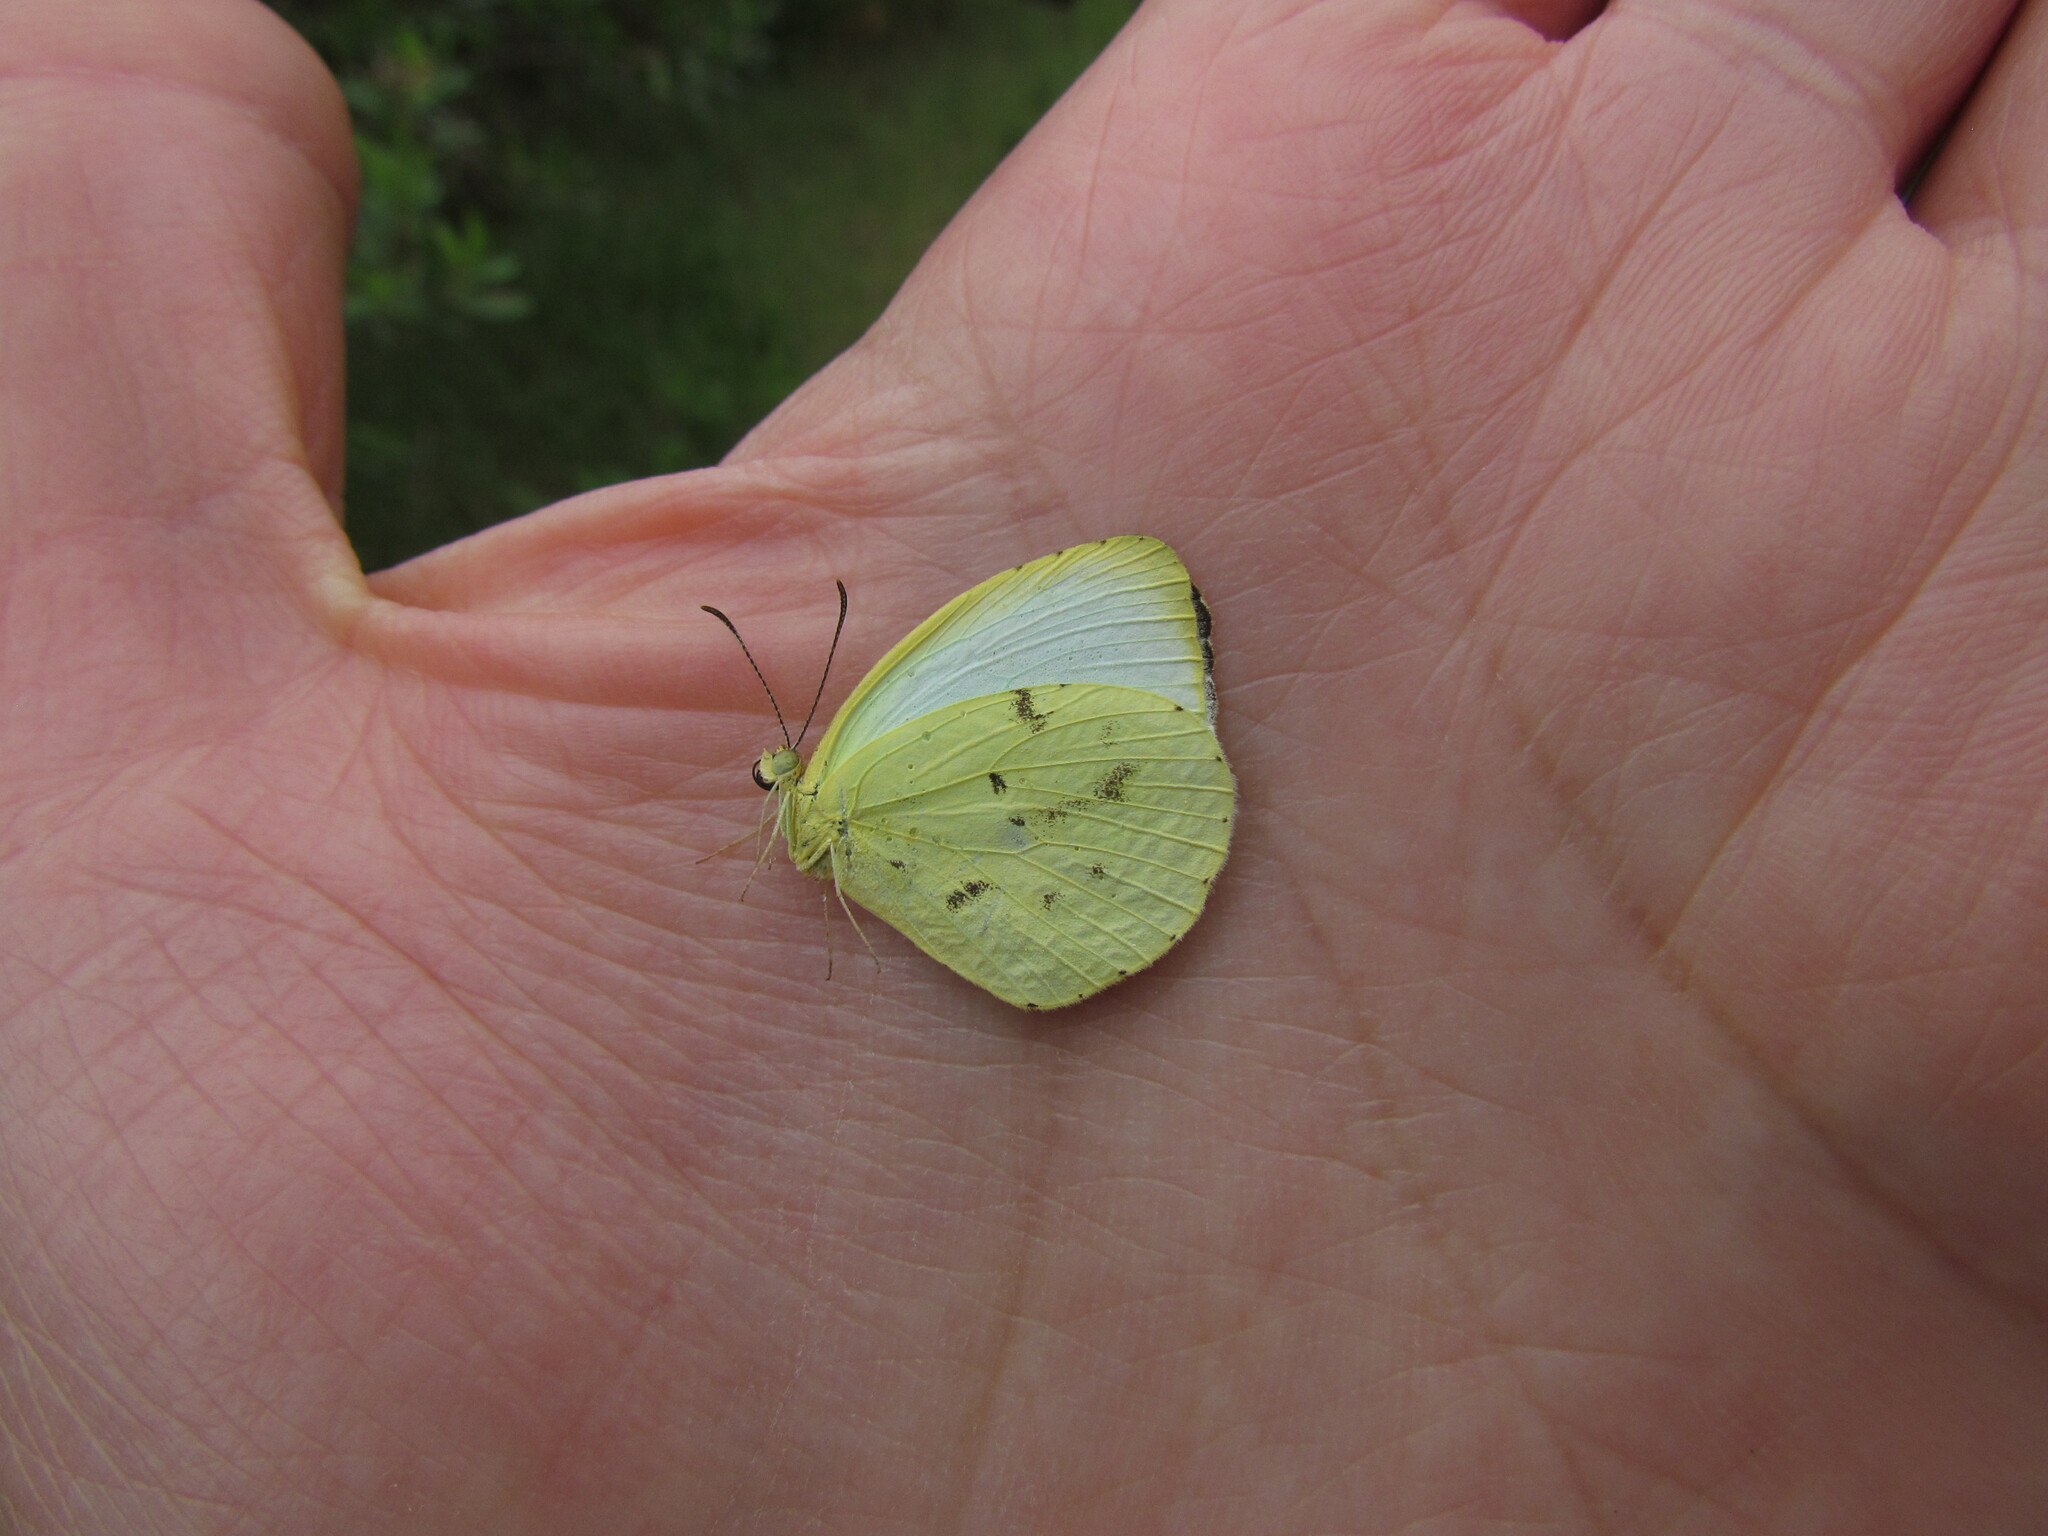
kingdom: Animalia
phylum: Arthropoda
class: Insecta
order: Lepidoptera
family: Pieridae
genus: Abaeis
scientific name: Abaeis albula
